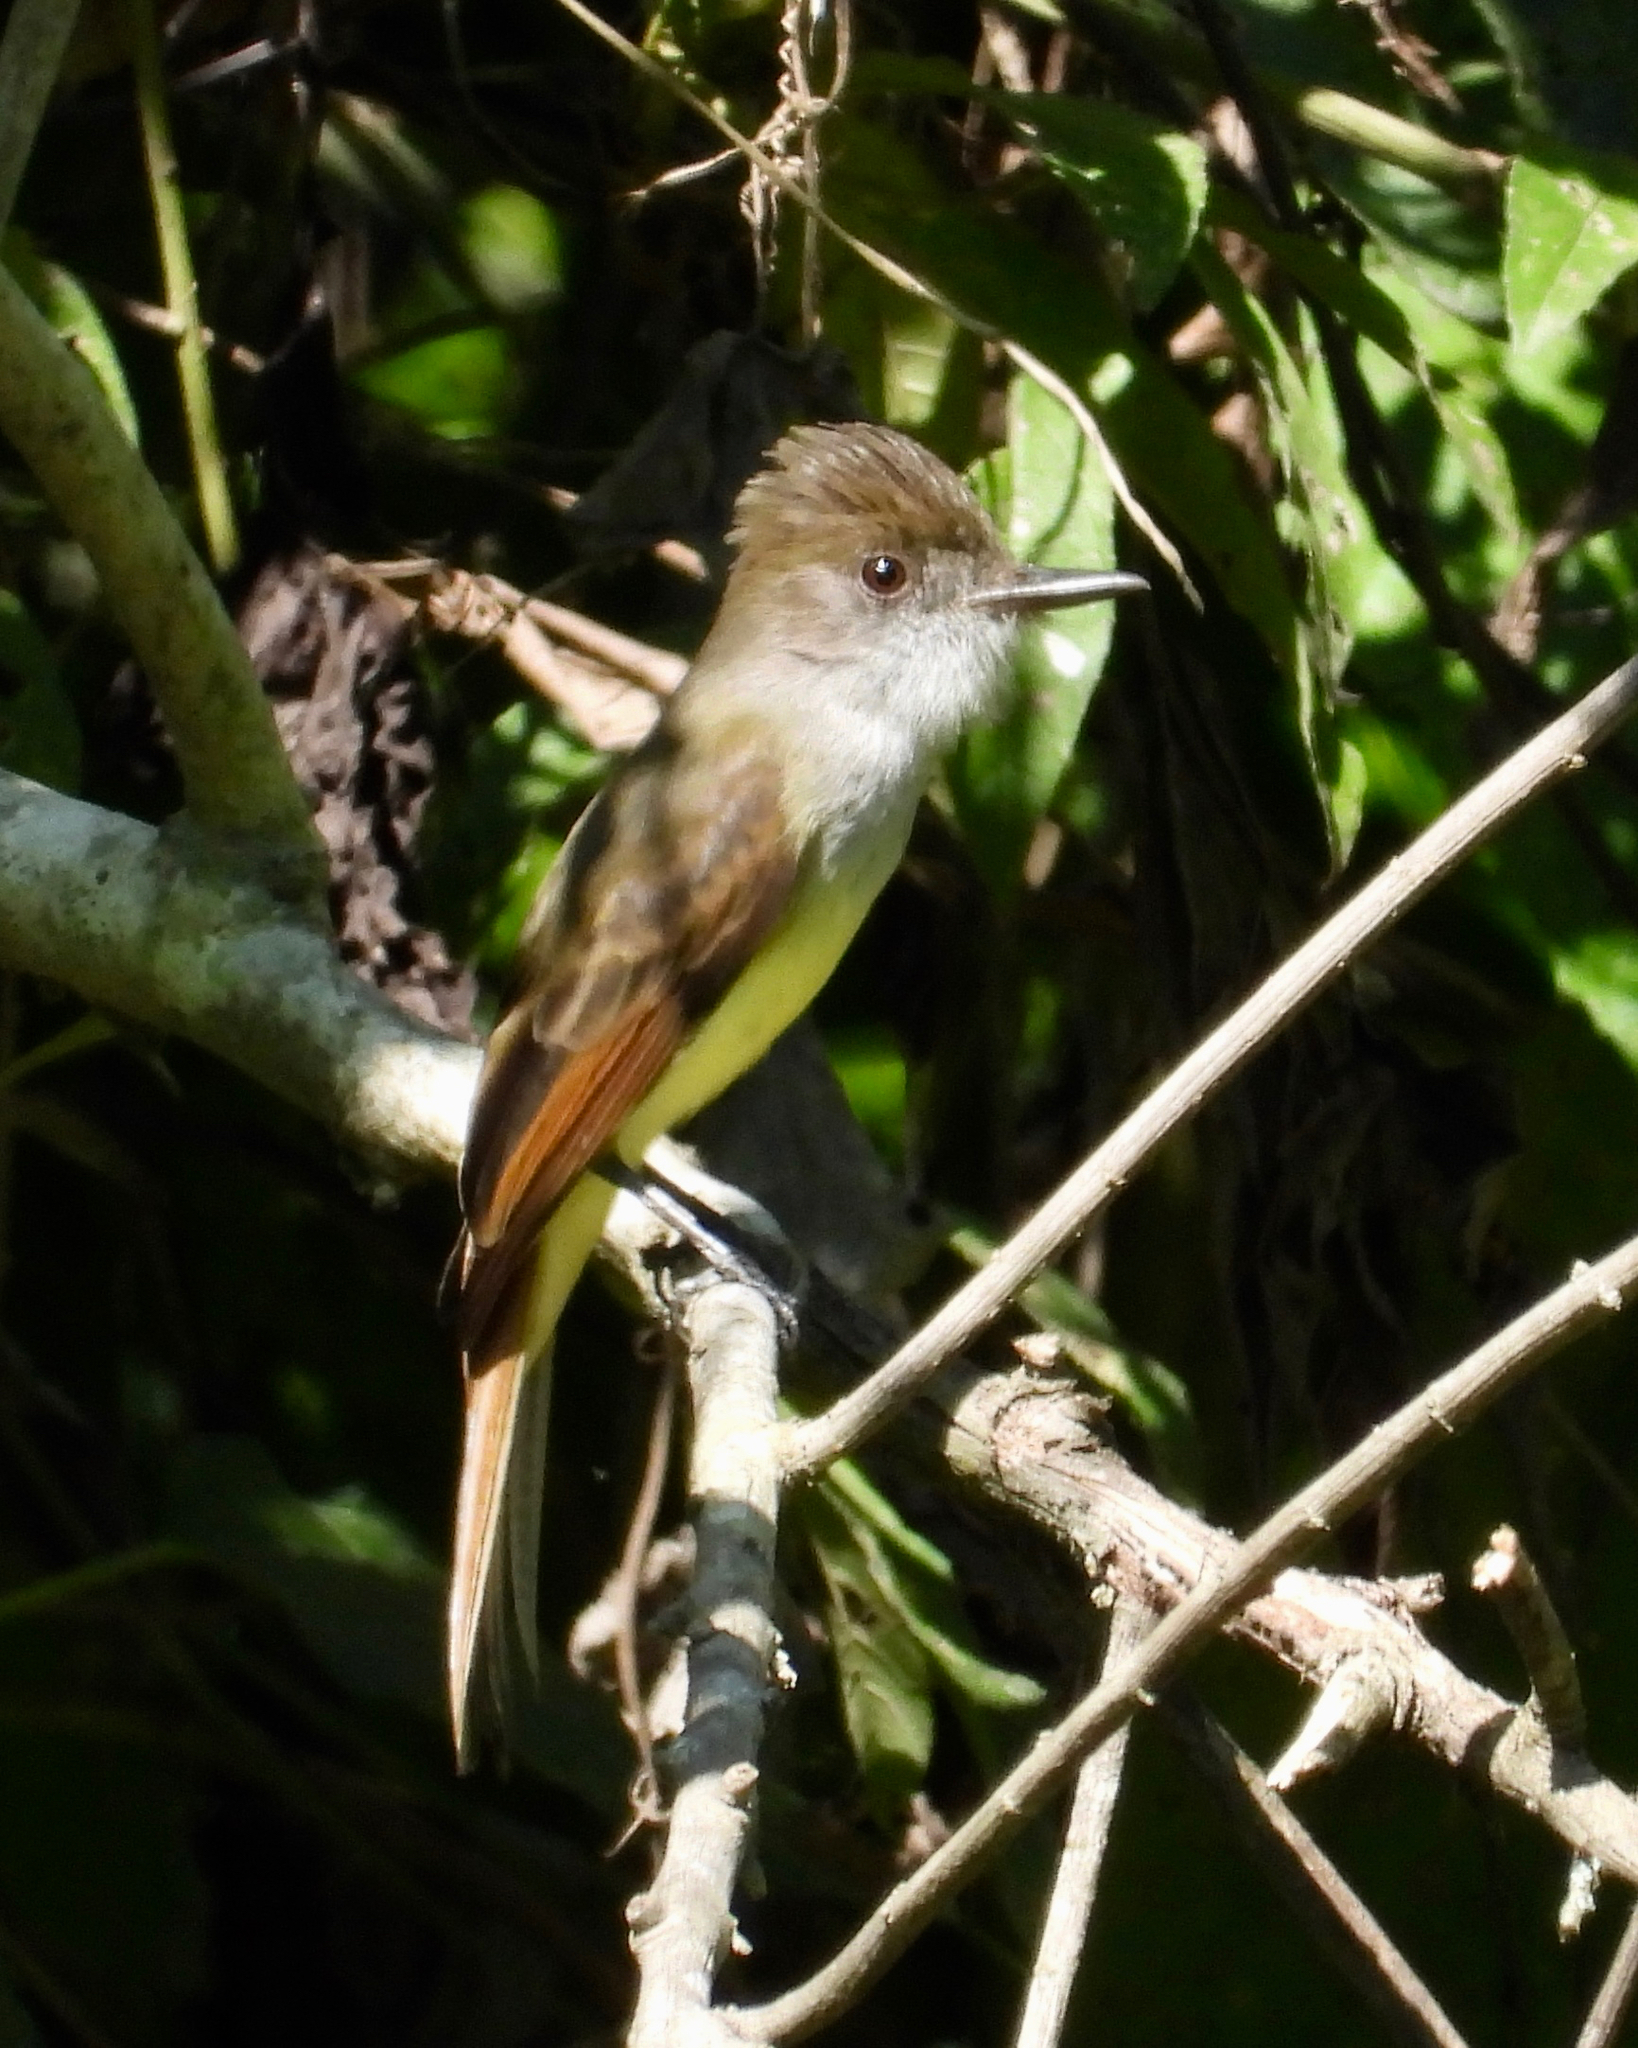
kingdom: Animalia
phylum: Chordata
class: Aves
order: Passeriformes
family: Tyrannidae
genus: Myiarchus
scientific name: Myiarchus tuberculifer
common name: Dusky-capped flycatcher
